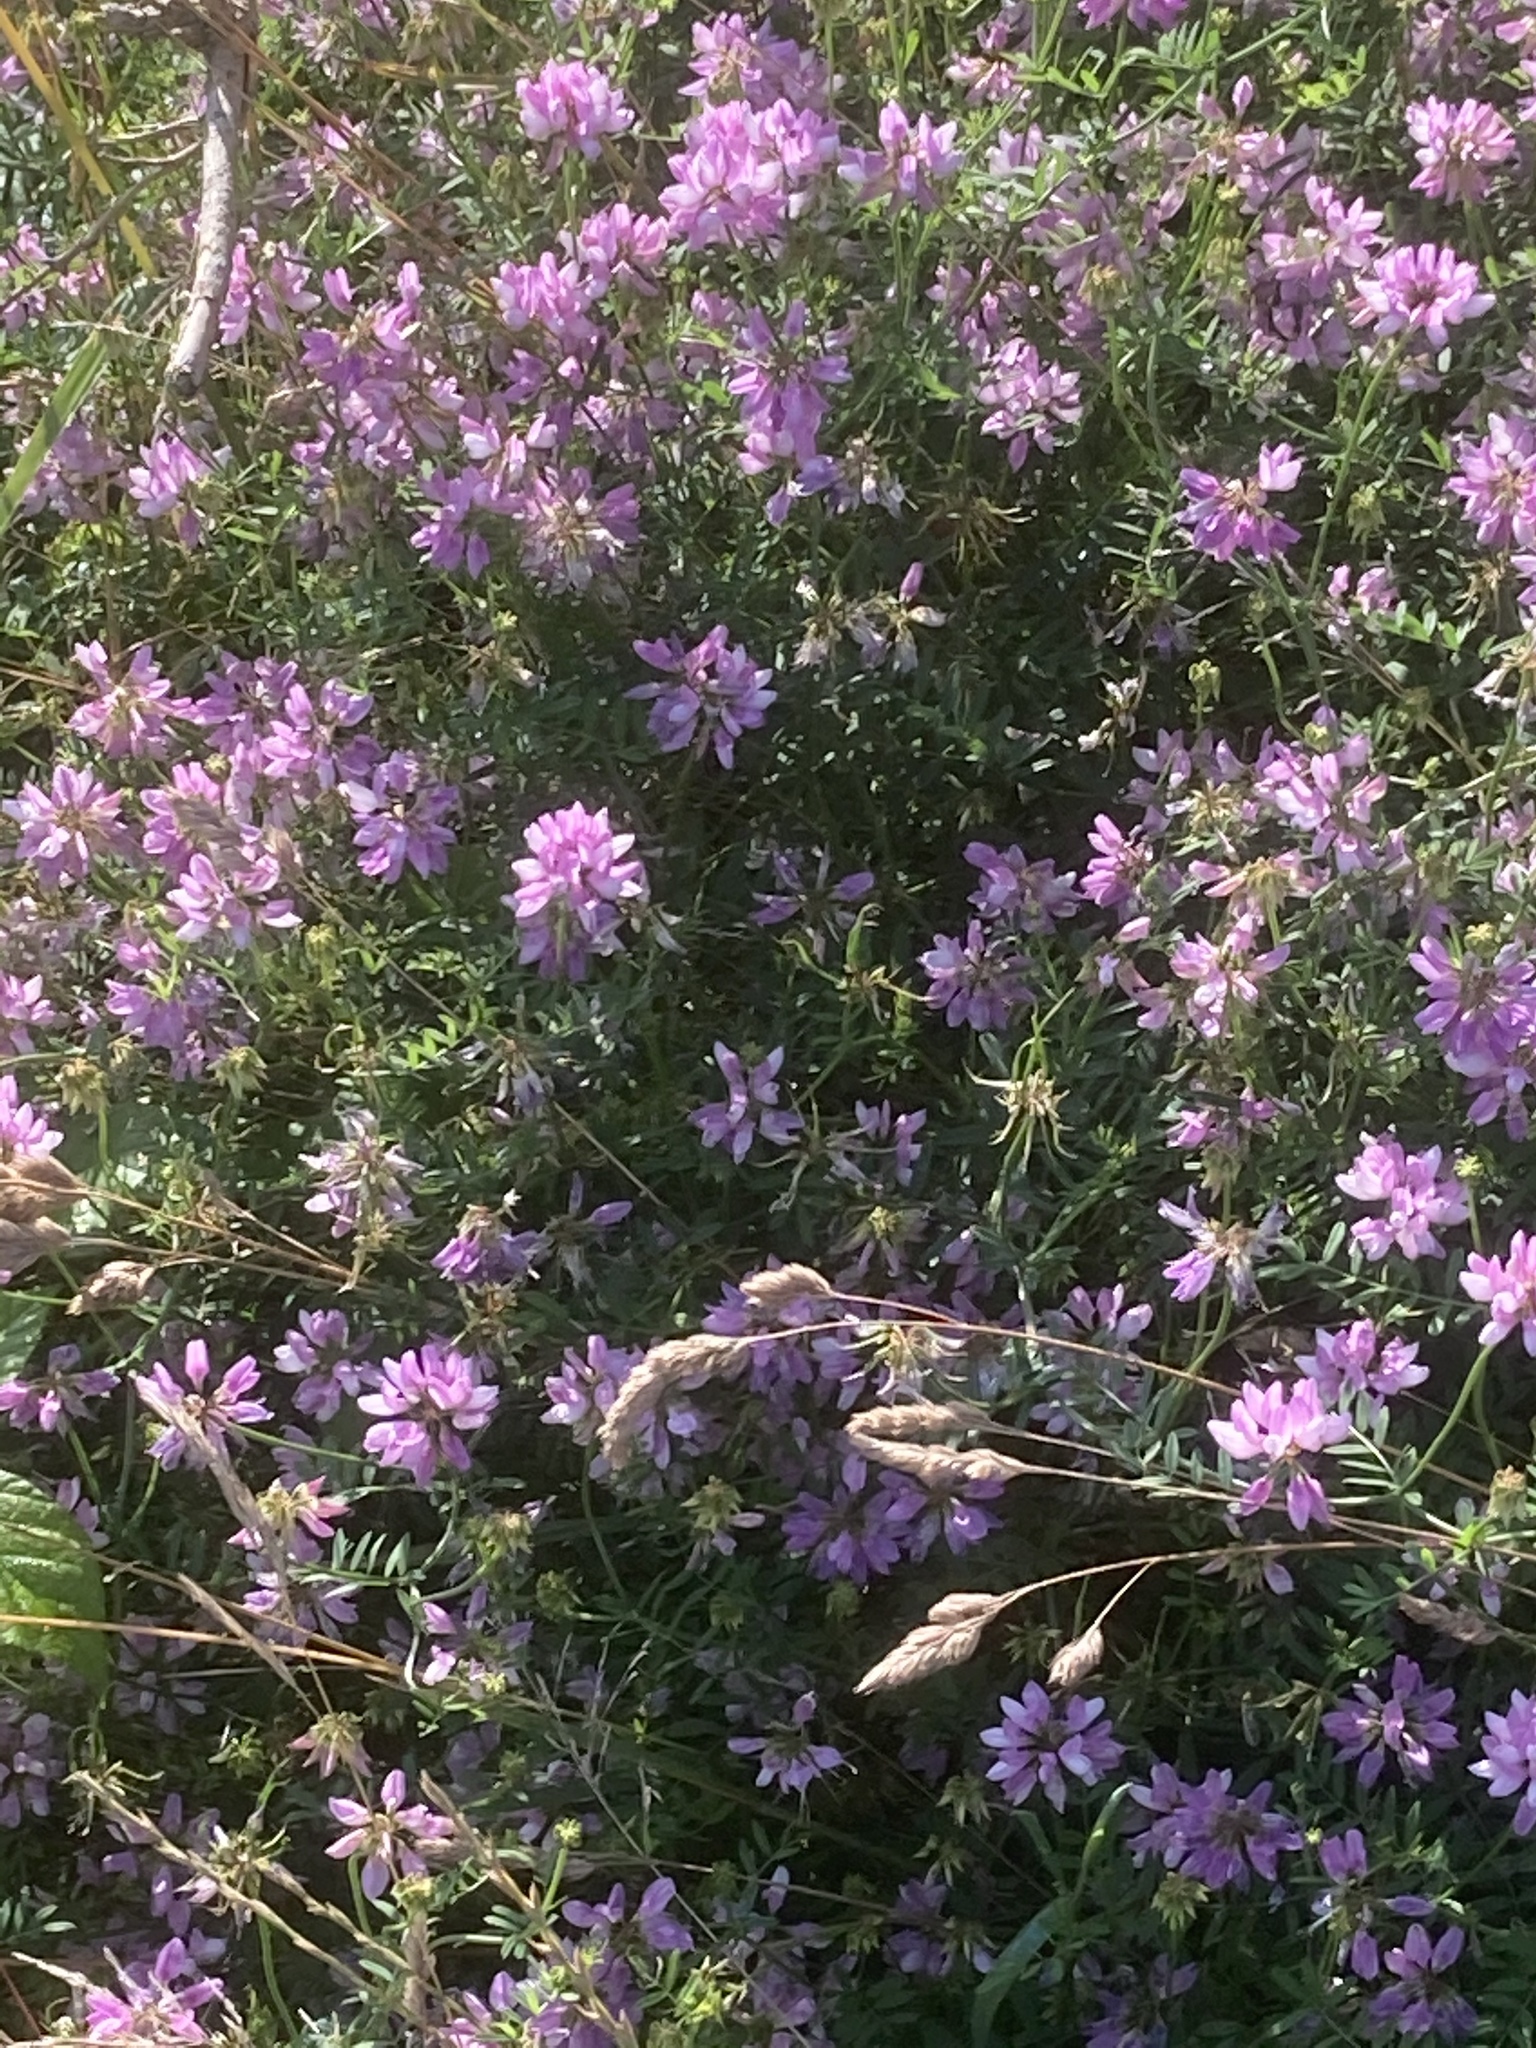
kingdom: Plantae
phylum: Tracheophyta
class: Magnoliopsida
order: Fabales
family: Fabaceae
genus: Coronilla
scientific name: Coronilla varia
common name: Crownvetch
